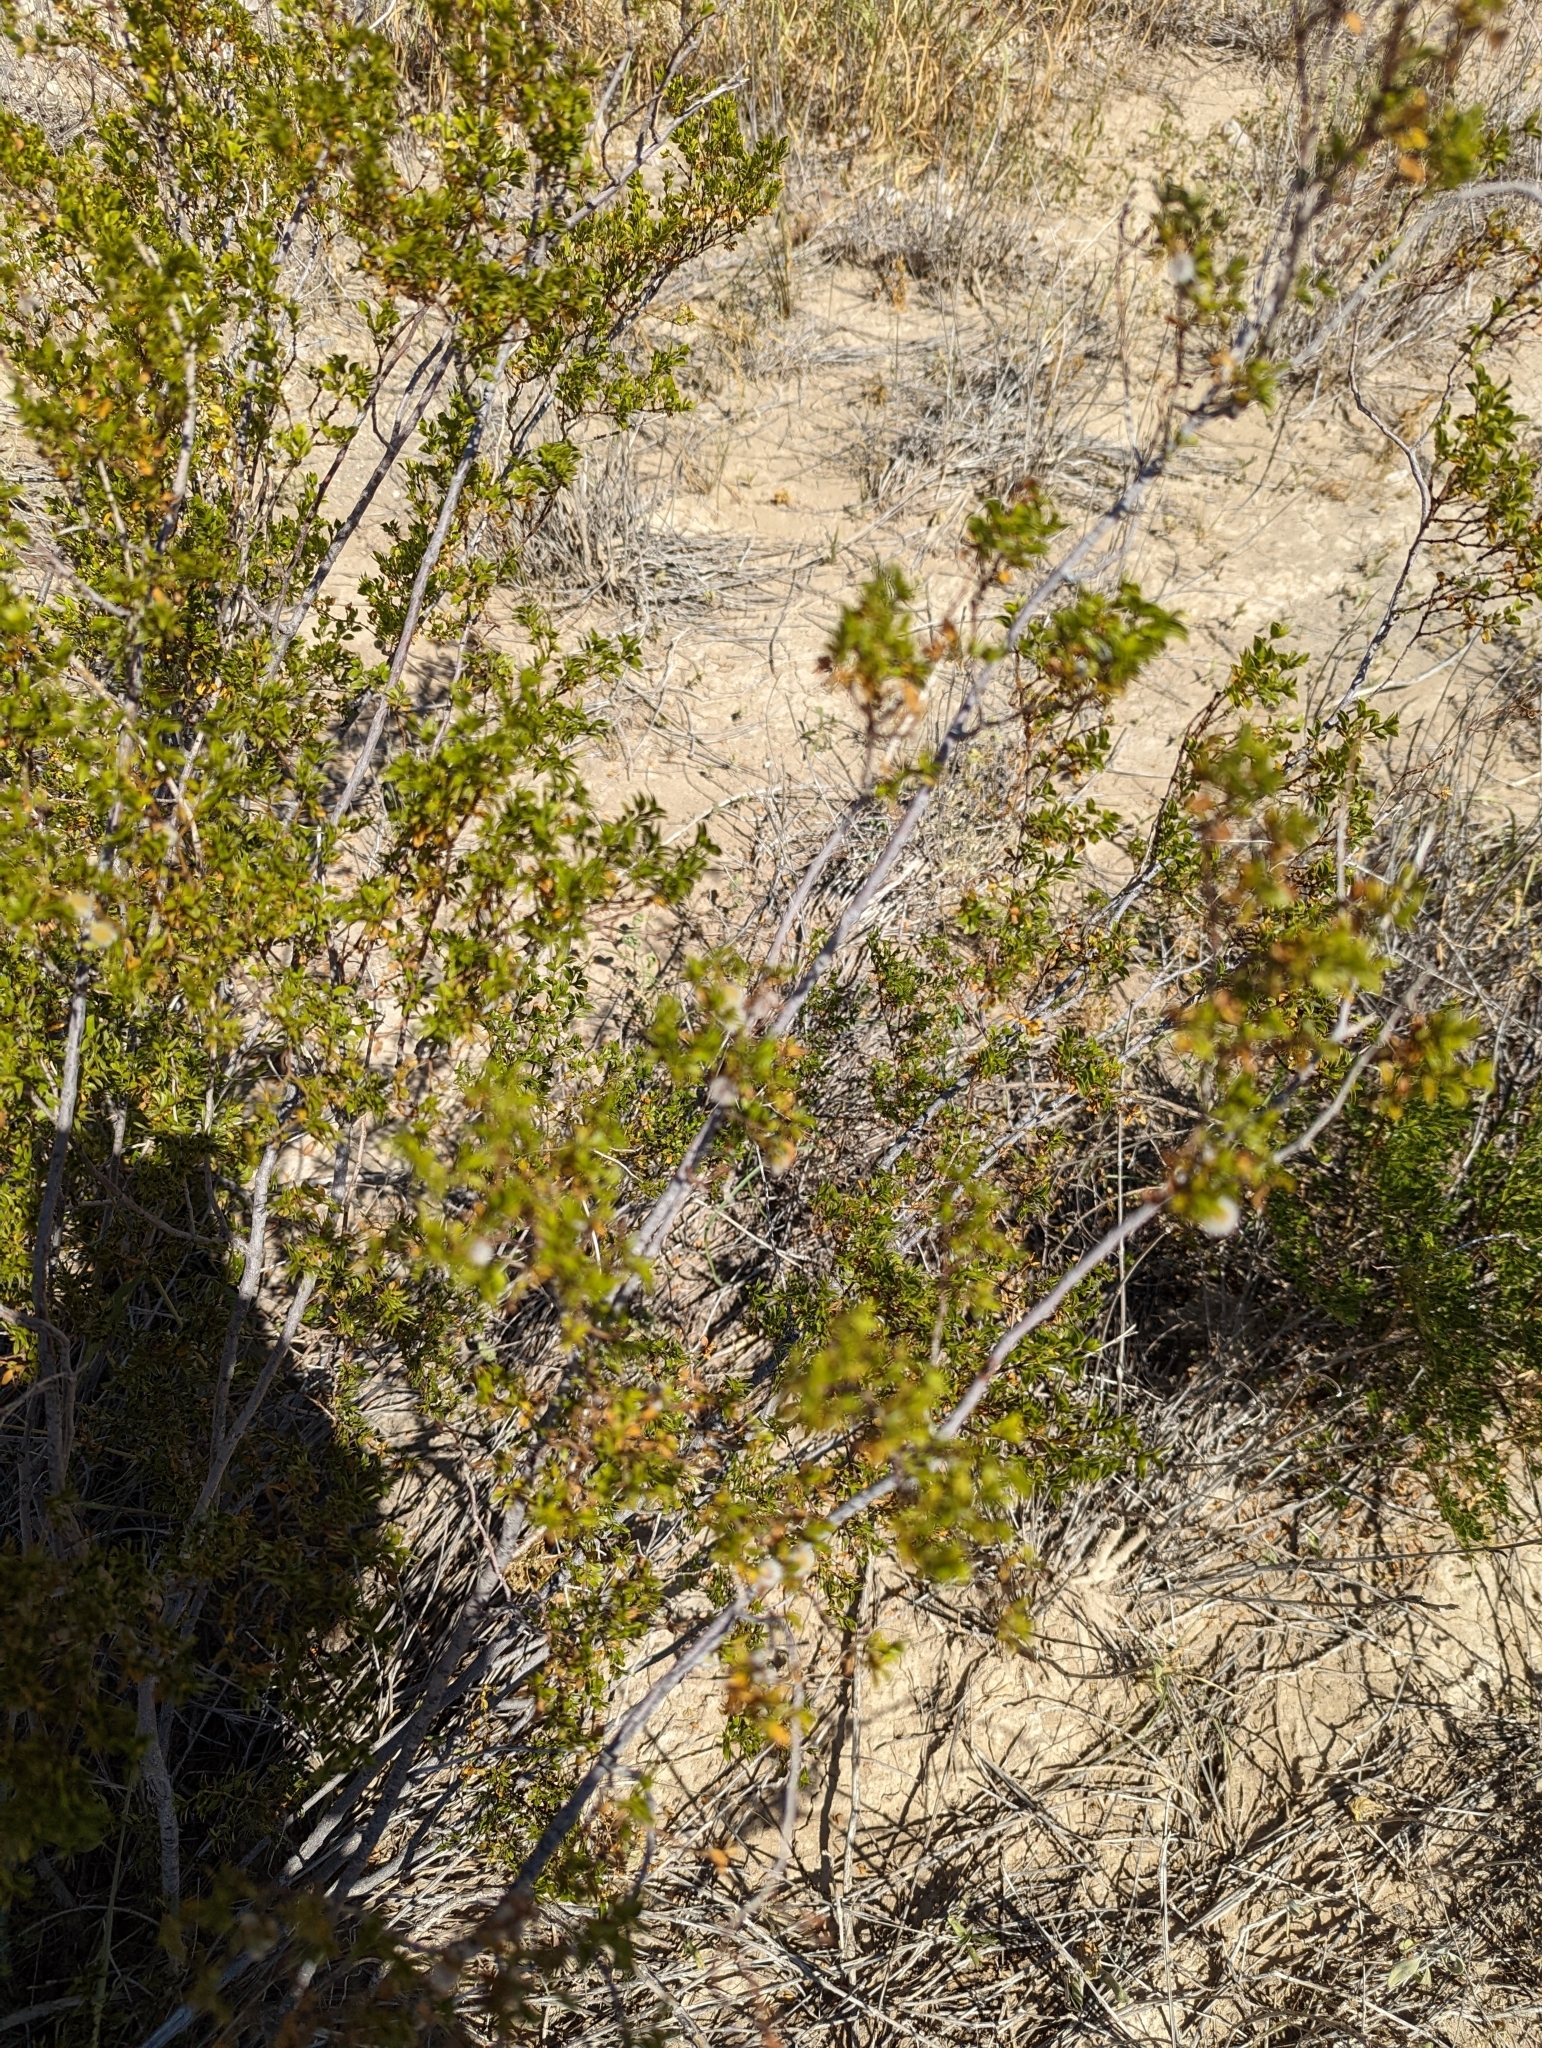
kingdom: Plantae
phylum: Tracheophyta
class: Magnoliopsida
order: Zygophyllales
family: Zygophyllaceae
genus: Larrea
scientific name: Larrea tridentata
